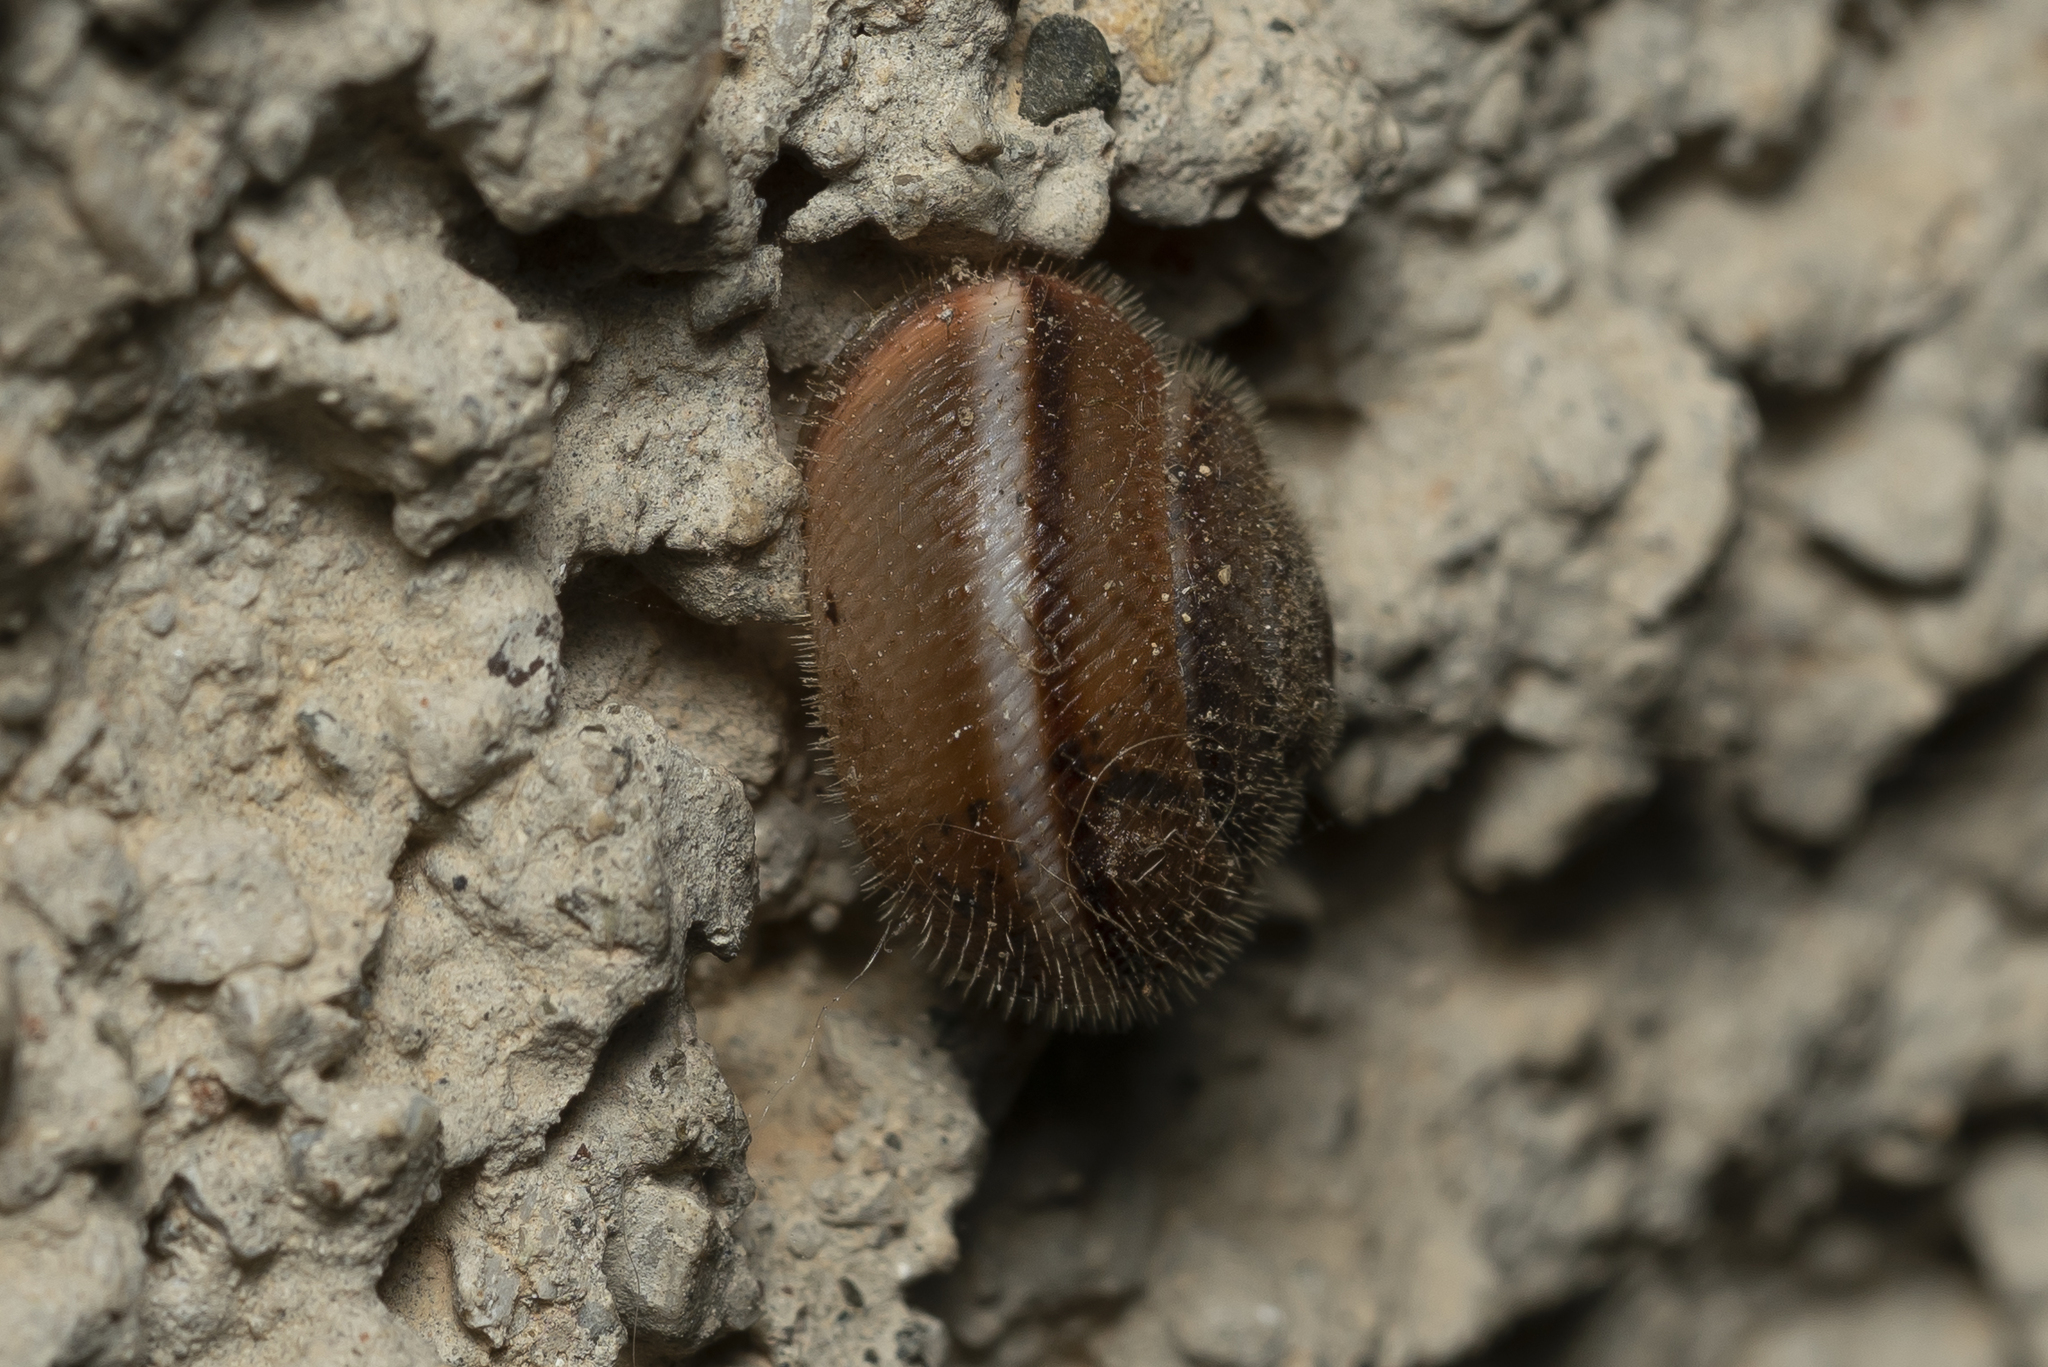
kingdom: Animalia
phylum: Mollusca
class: Gastropoda
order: Stylommatophora
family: Hygromiidae
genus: Metafruticicola
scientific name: Metafruticicola pellita
